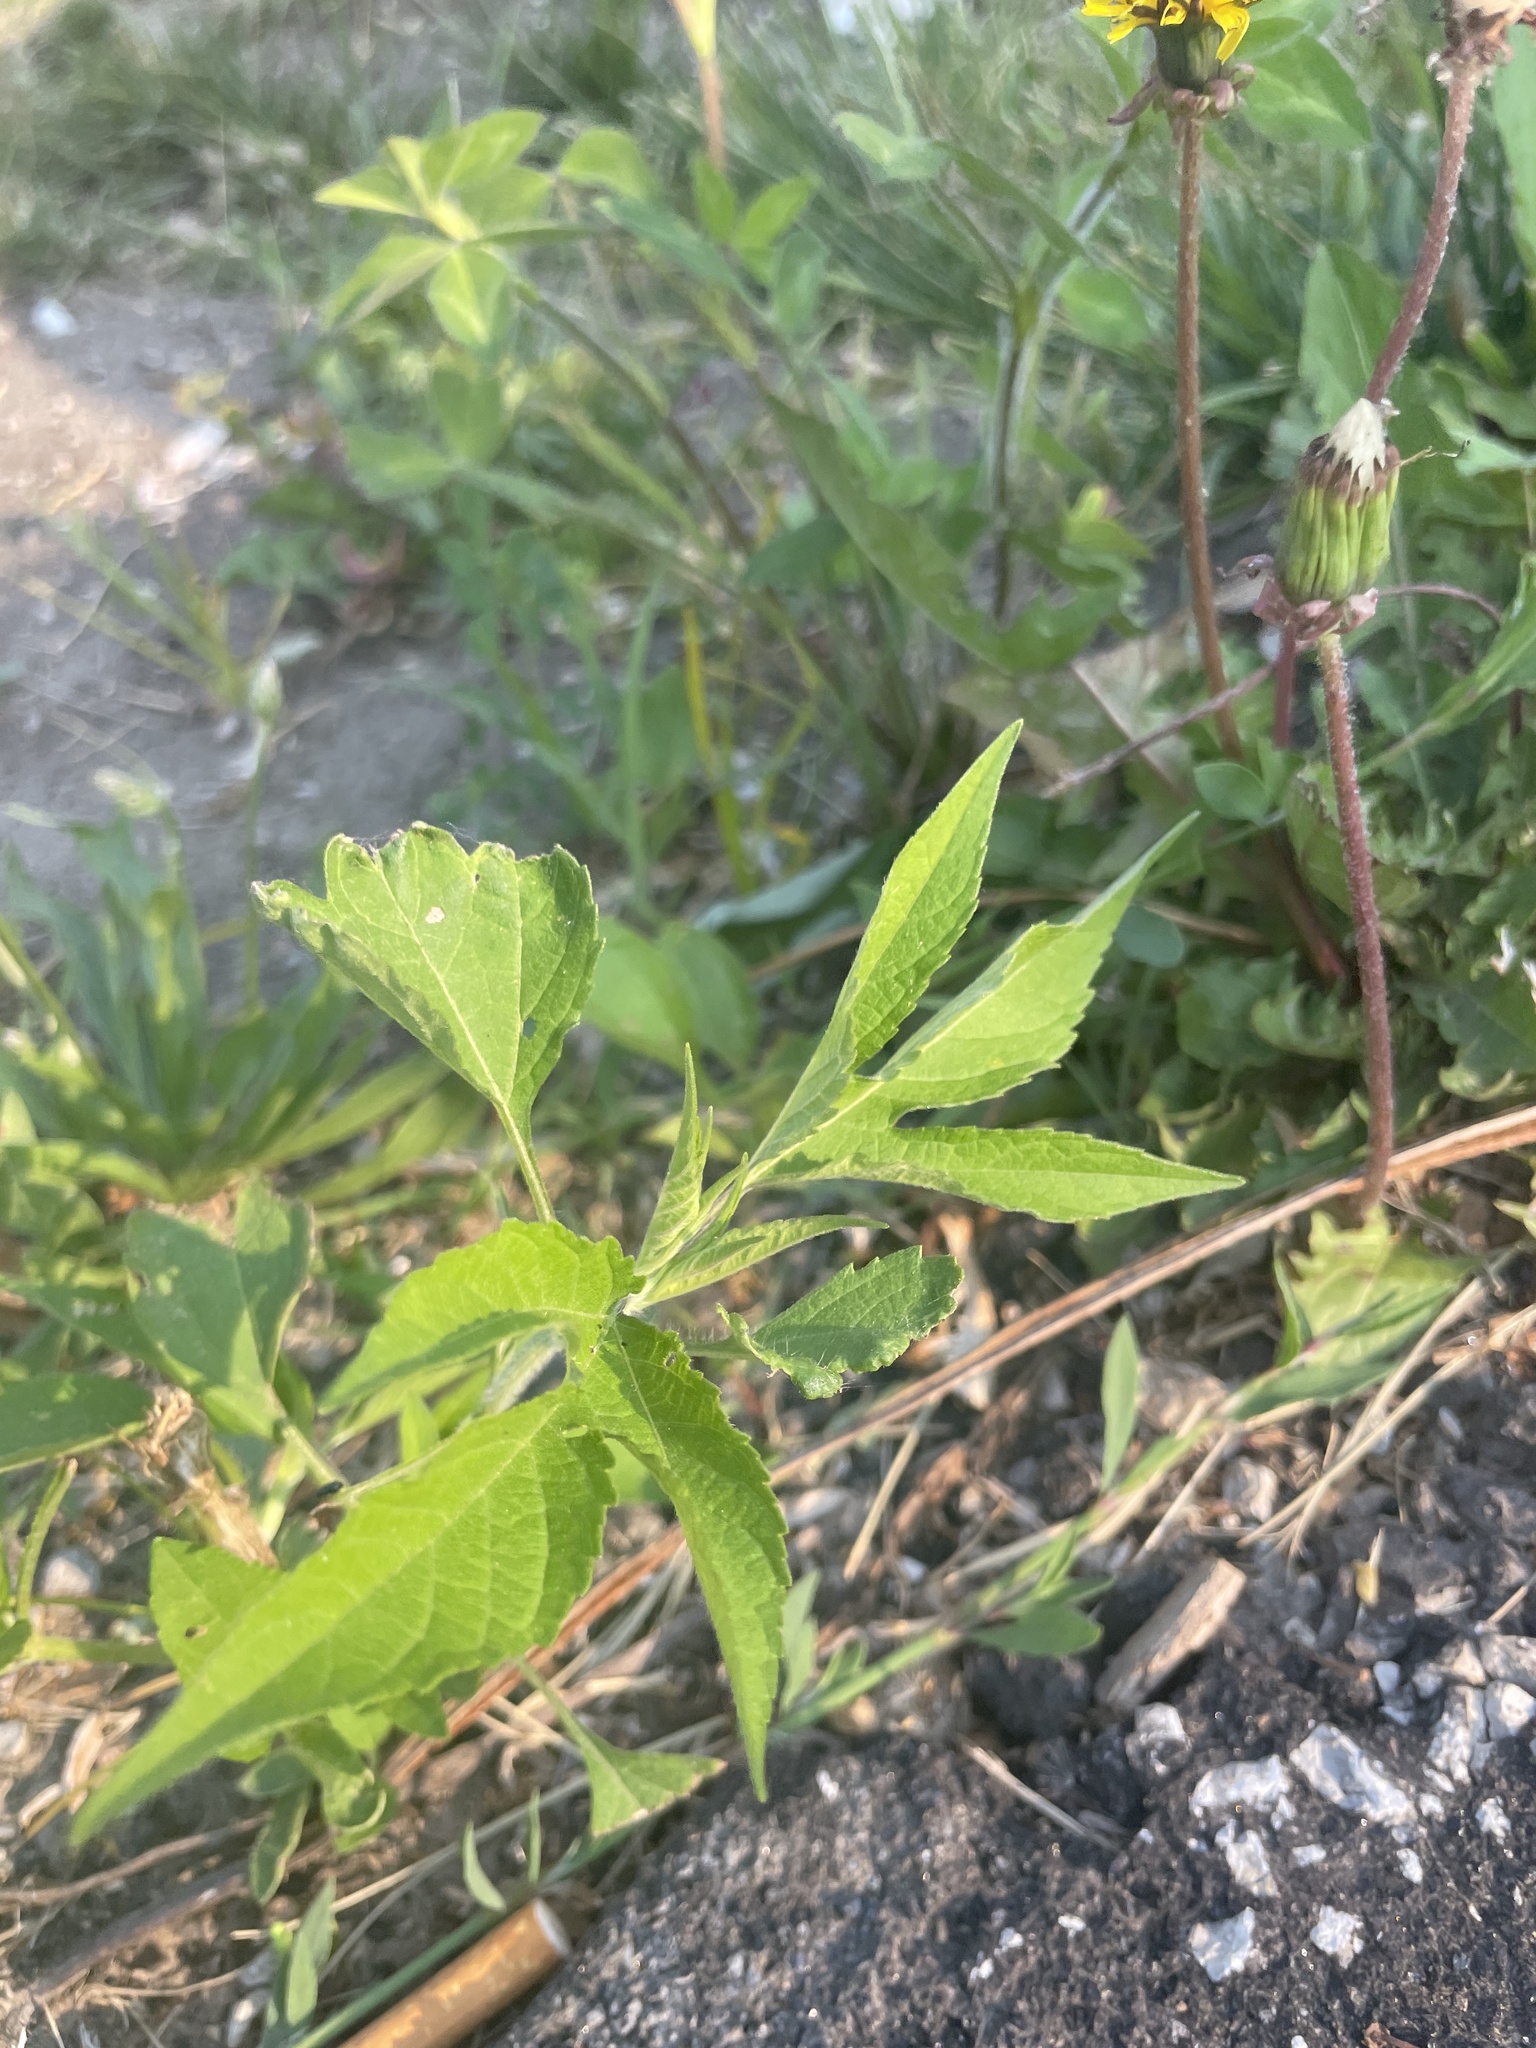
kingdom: Plantae
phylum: Tracheophyta
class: Magnoliopsida
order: Asterales
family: Asteraceae
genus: Ambrosia
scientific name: Ambrosia trifida
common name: Giant ragweed
